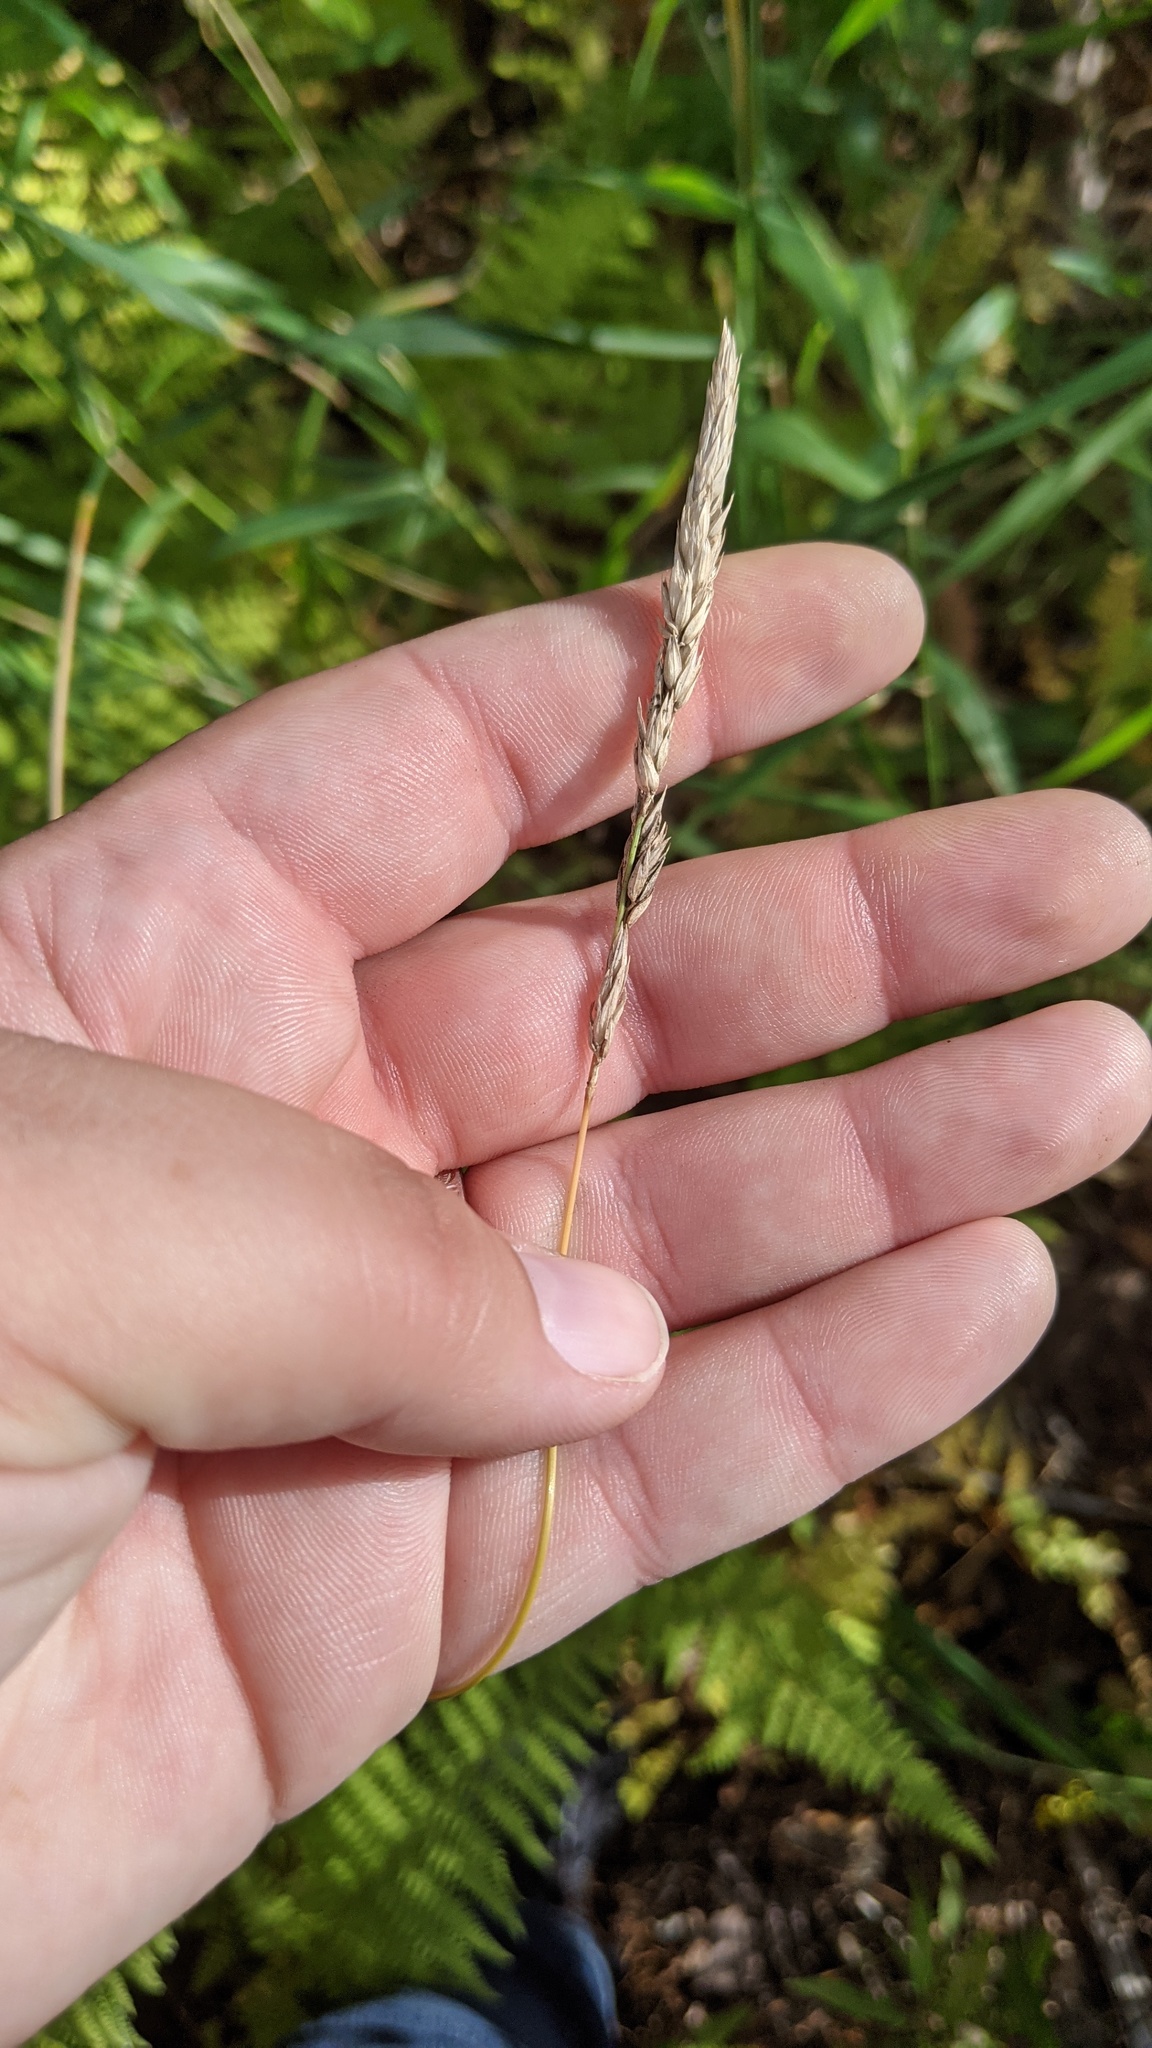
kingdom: Plantae
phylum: Tracheophyta
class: Liliopsida
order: Poales
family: Poaceae
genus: Phalaris
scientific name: Phalaris arundinacea
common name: Reed canary-grass
